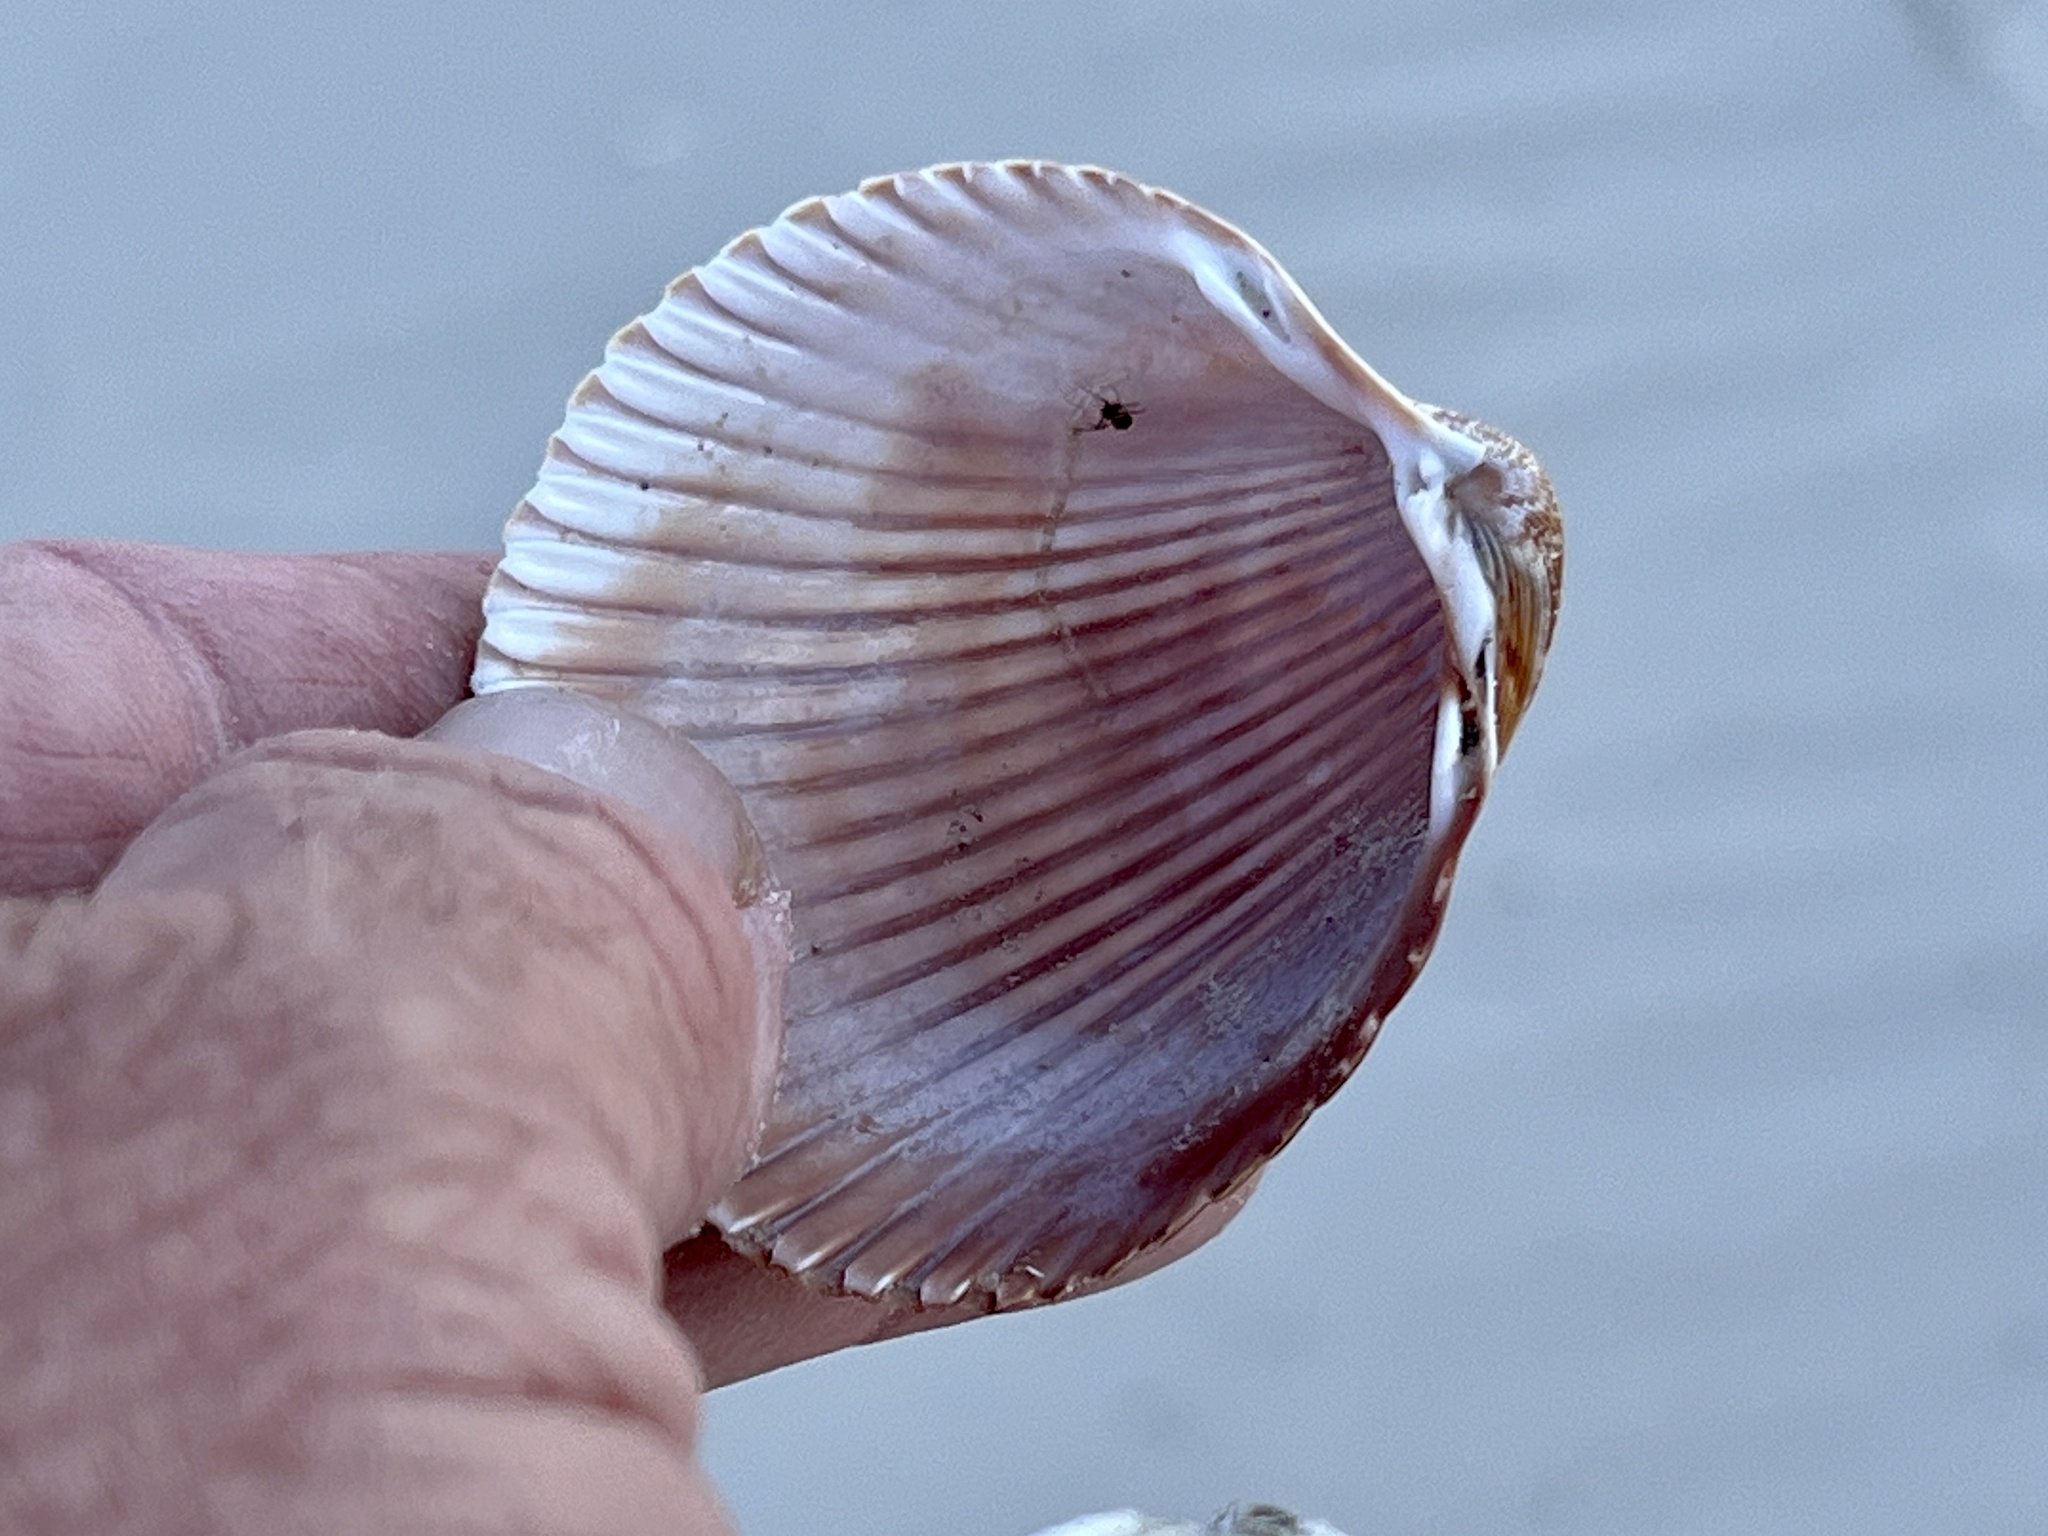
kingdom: Animalia
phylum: Mollusca
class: Bivalvia
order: Cardiida
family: Cardiidae
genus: Dinocardium
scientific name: Dinocardium robustum
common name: Atlantic giant cockle
